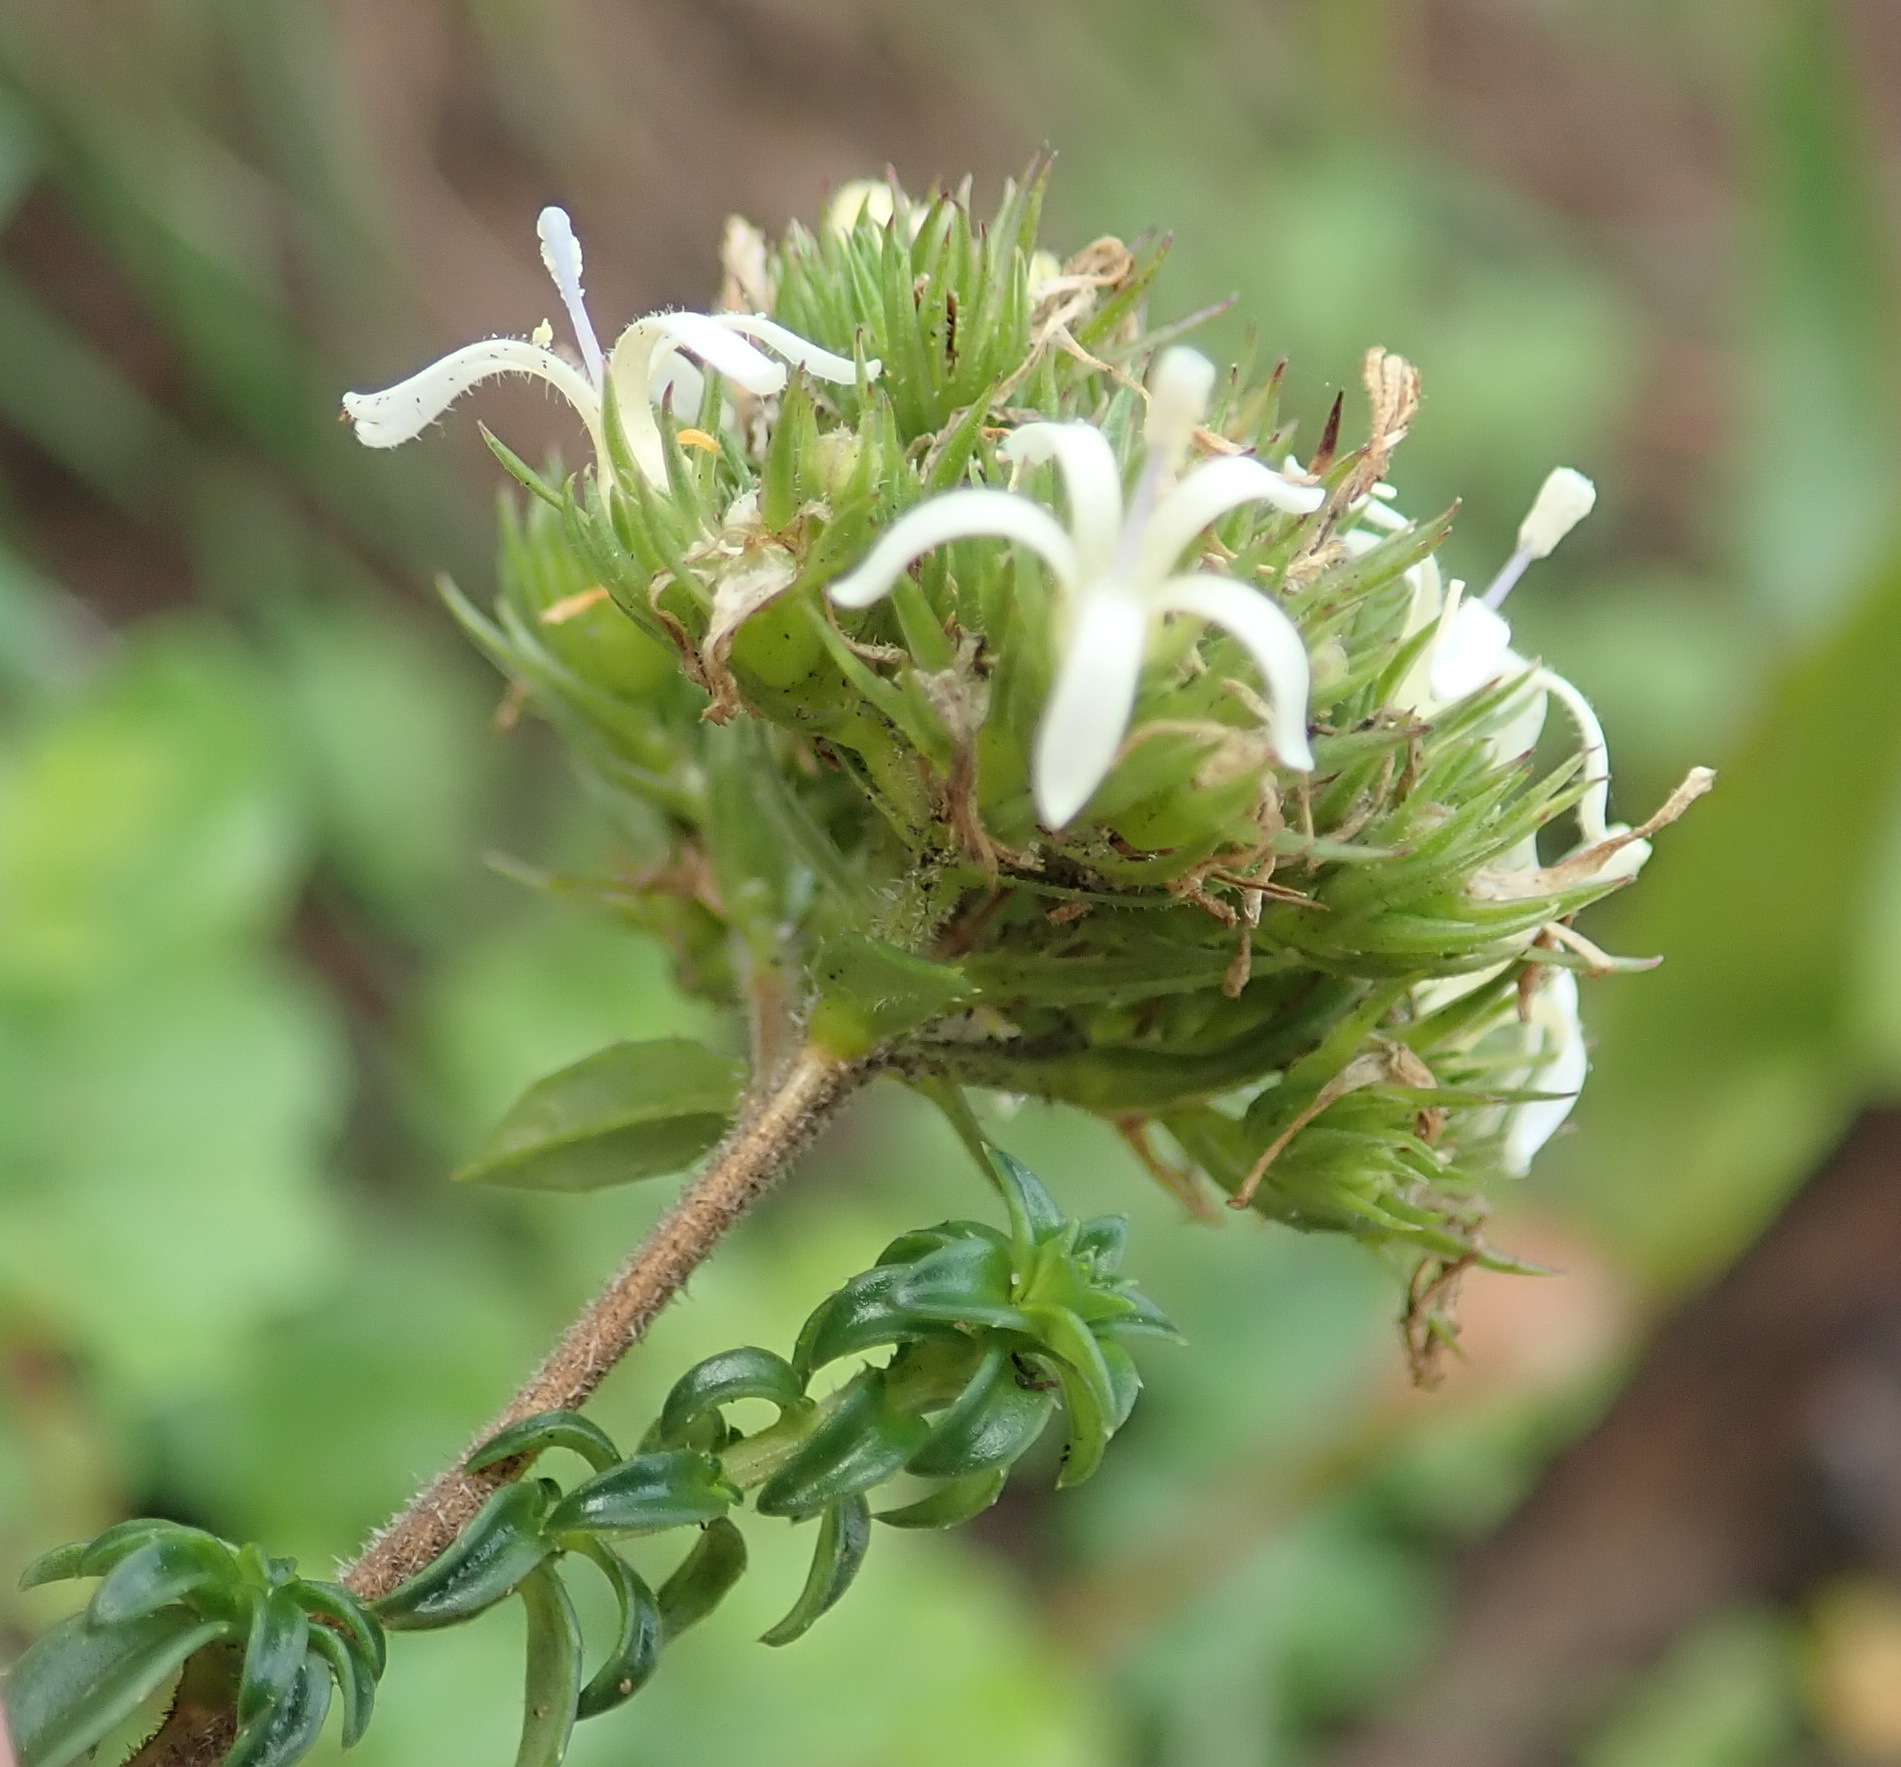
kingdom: Plantae
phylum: Tracheophyta
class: Magnoliopsida
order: Asterales
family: Campanulaceae
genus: Wahlenbergia
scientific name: Wahlenbergia desmantha
